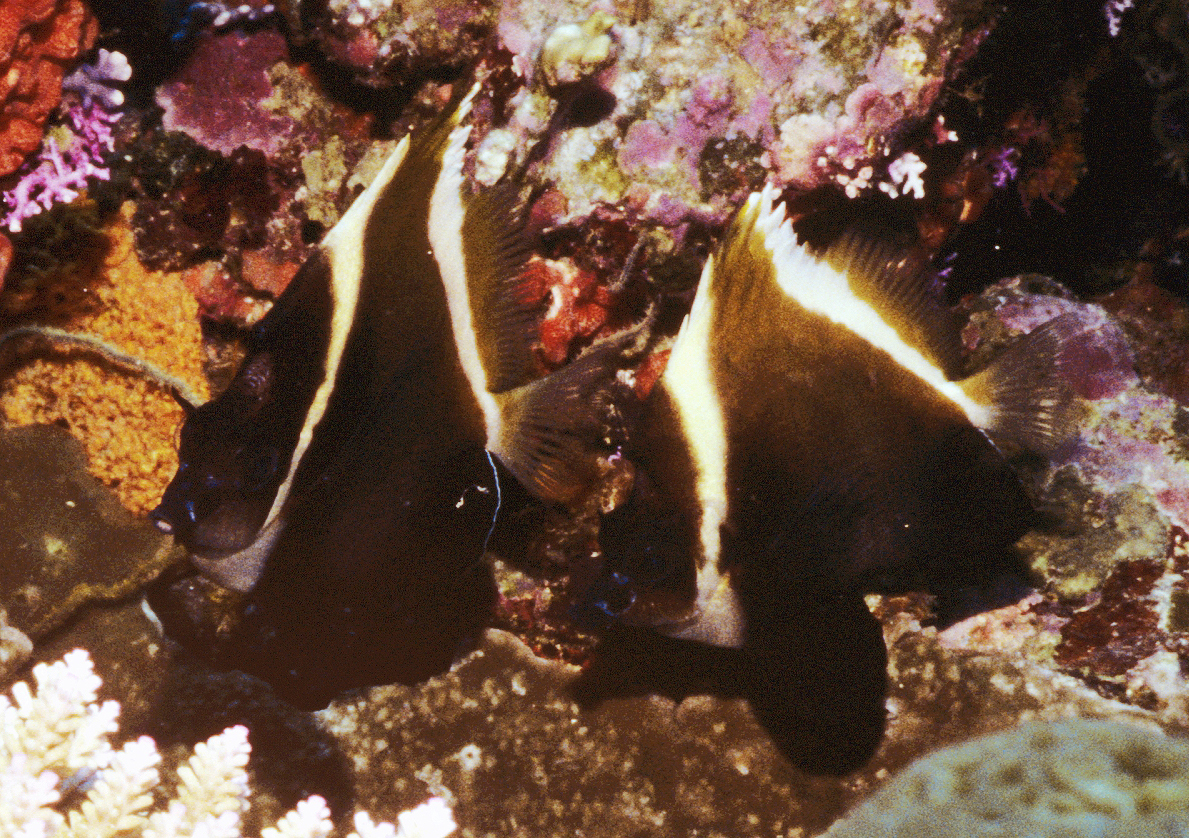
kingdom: Animalia
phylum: Chordata
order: Perciformes
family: Chaetodontidae
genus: Heniochus
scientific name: Heniochus varius
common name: Horned bannerfish
